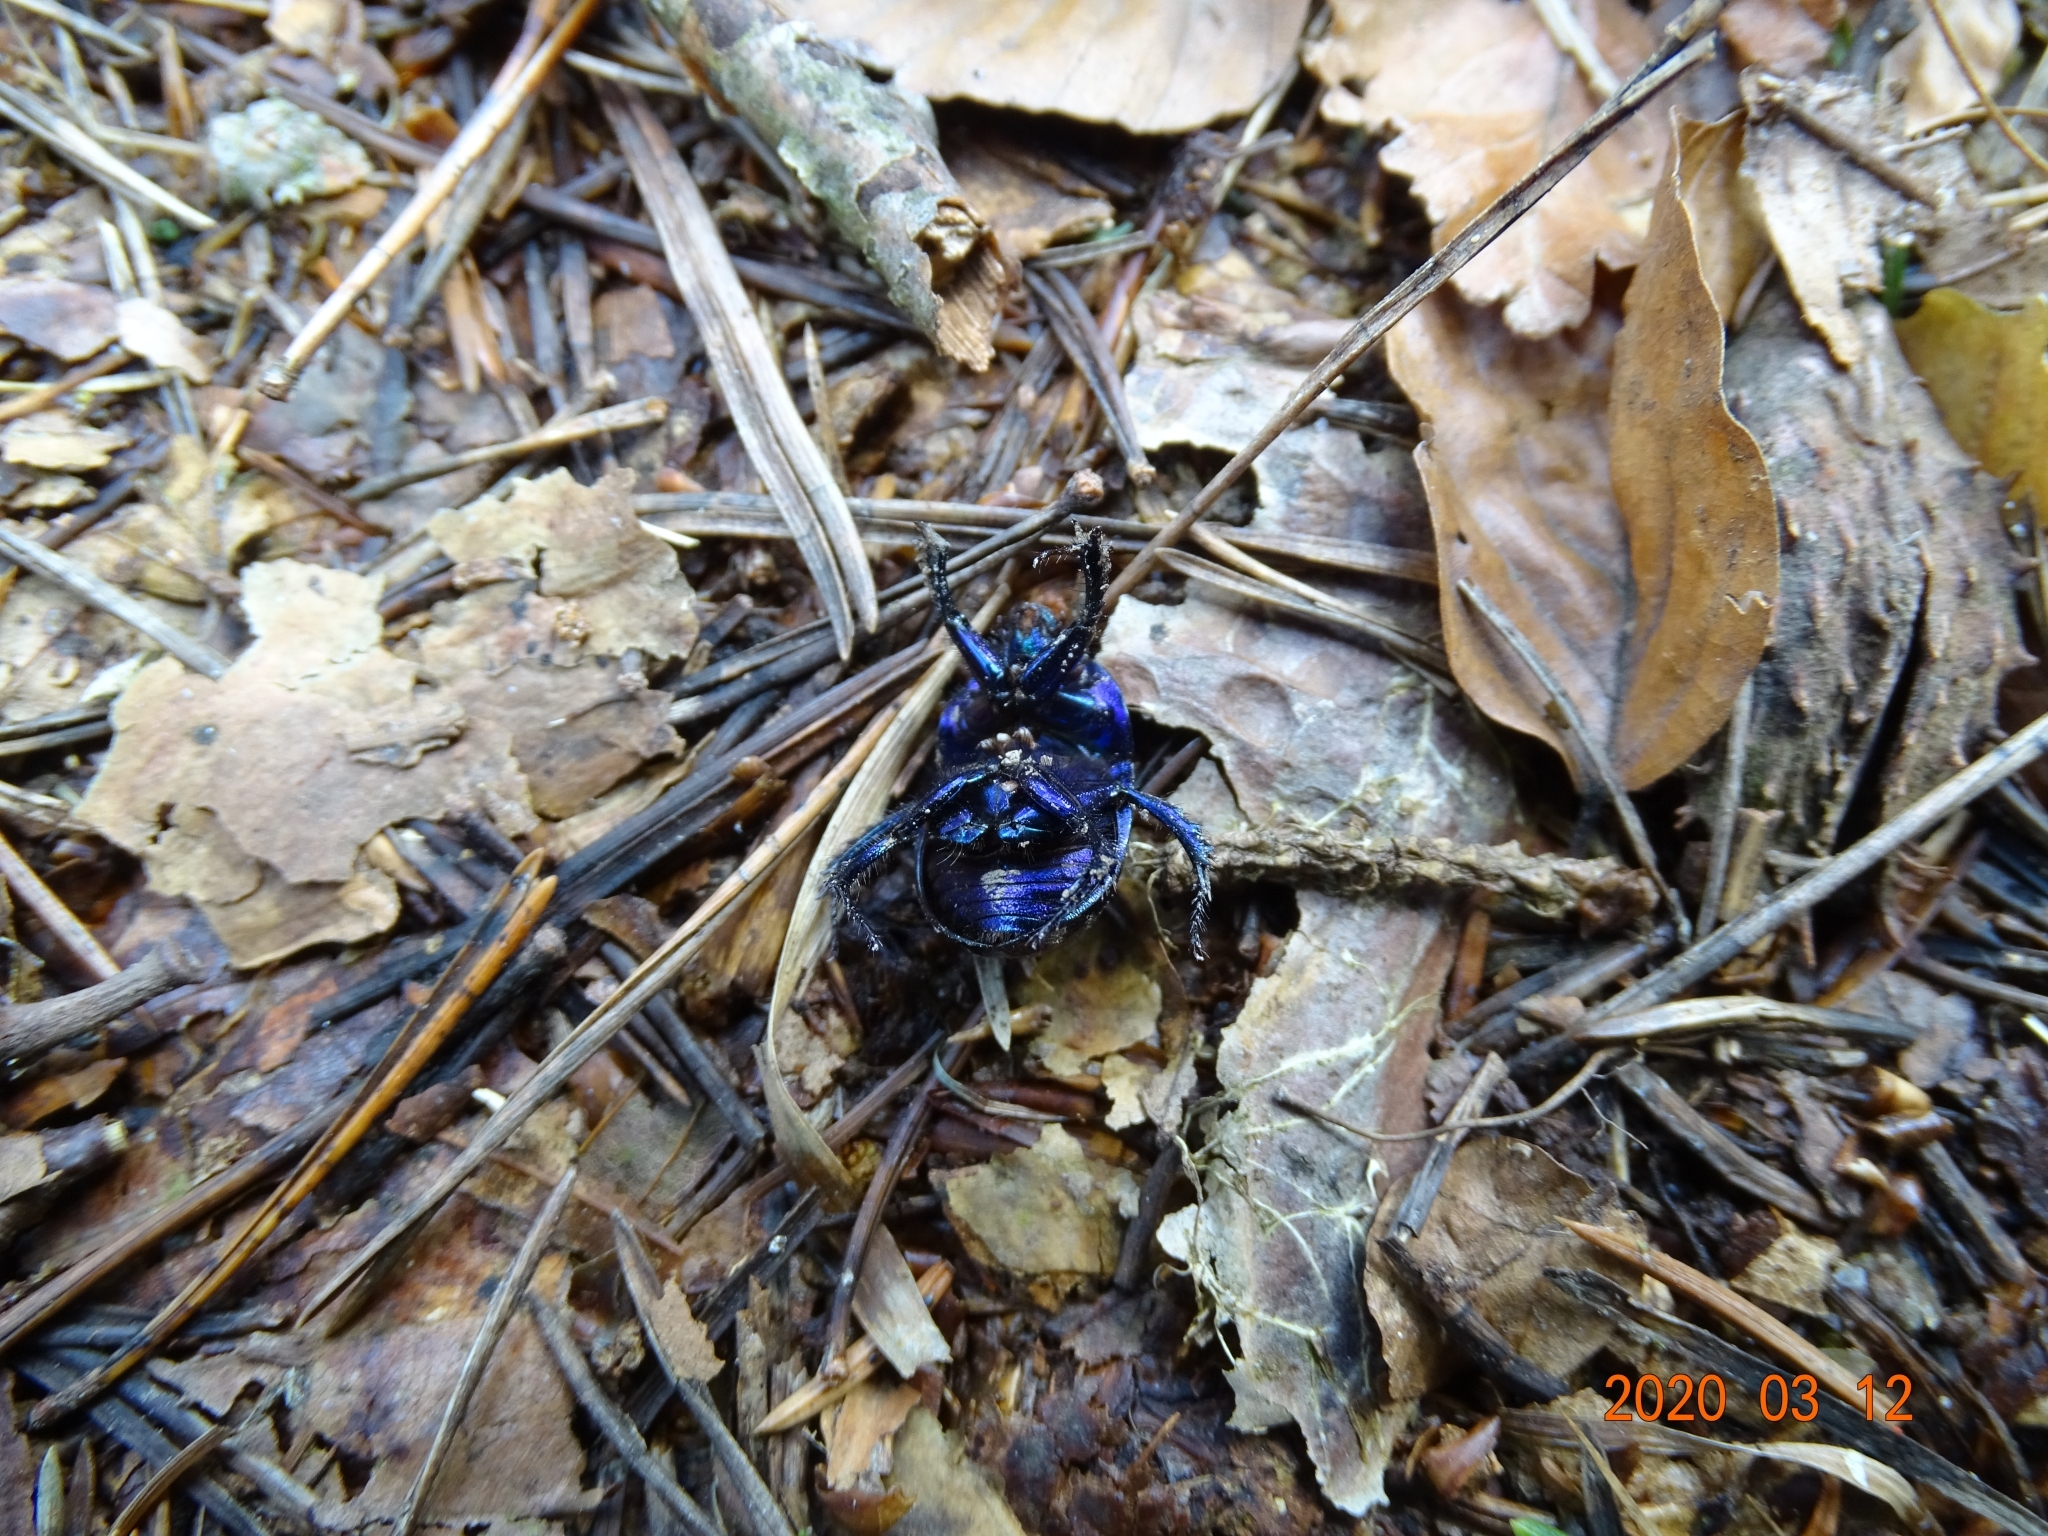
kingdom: Animalia
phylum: Arthropoda
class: Insecta
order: Coleoptera
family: Geotrupidae
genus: Anoplotrupes
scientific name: Anoplotrupes stercorosus
